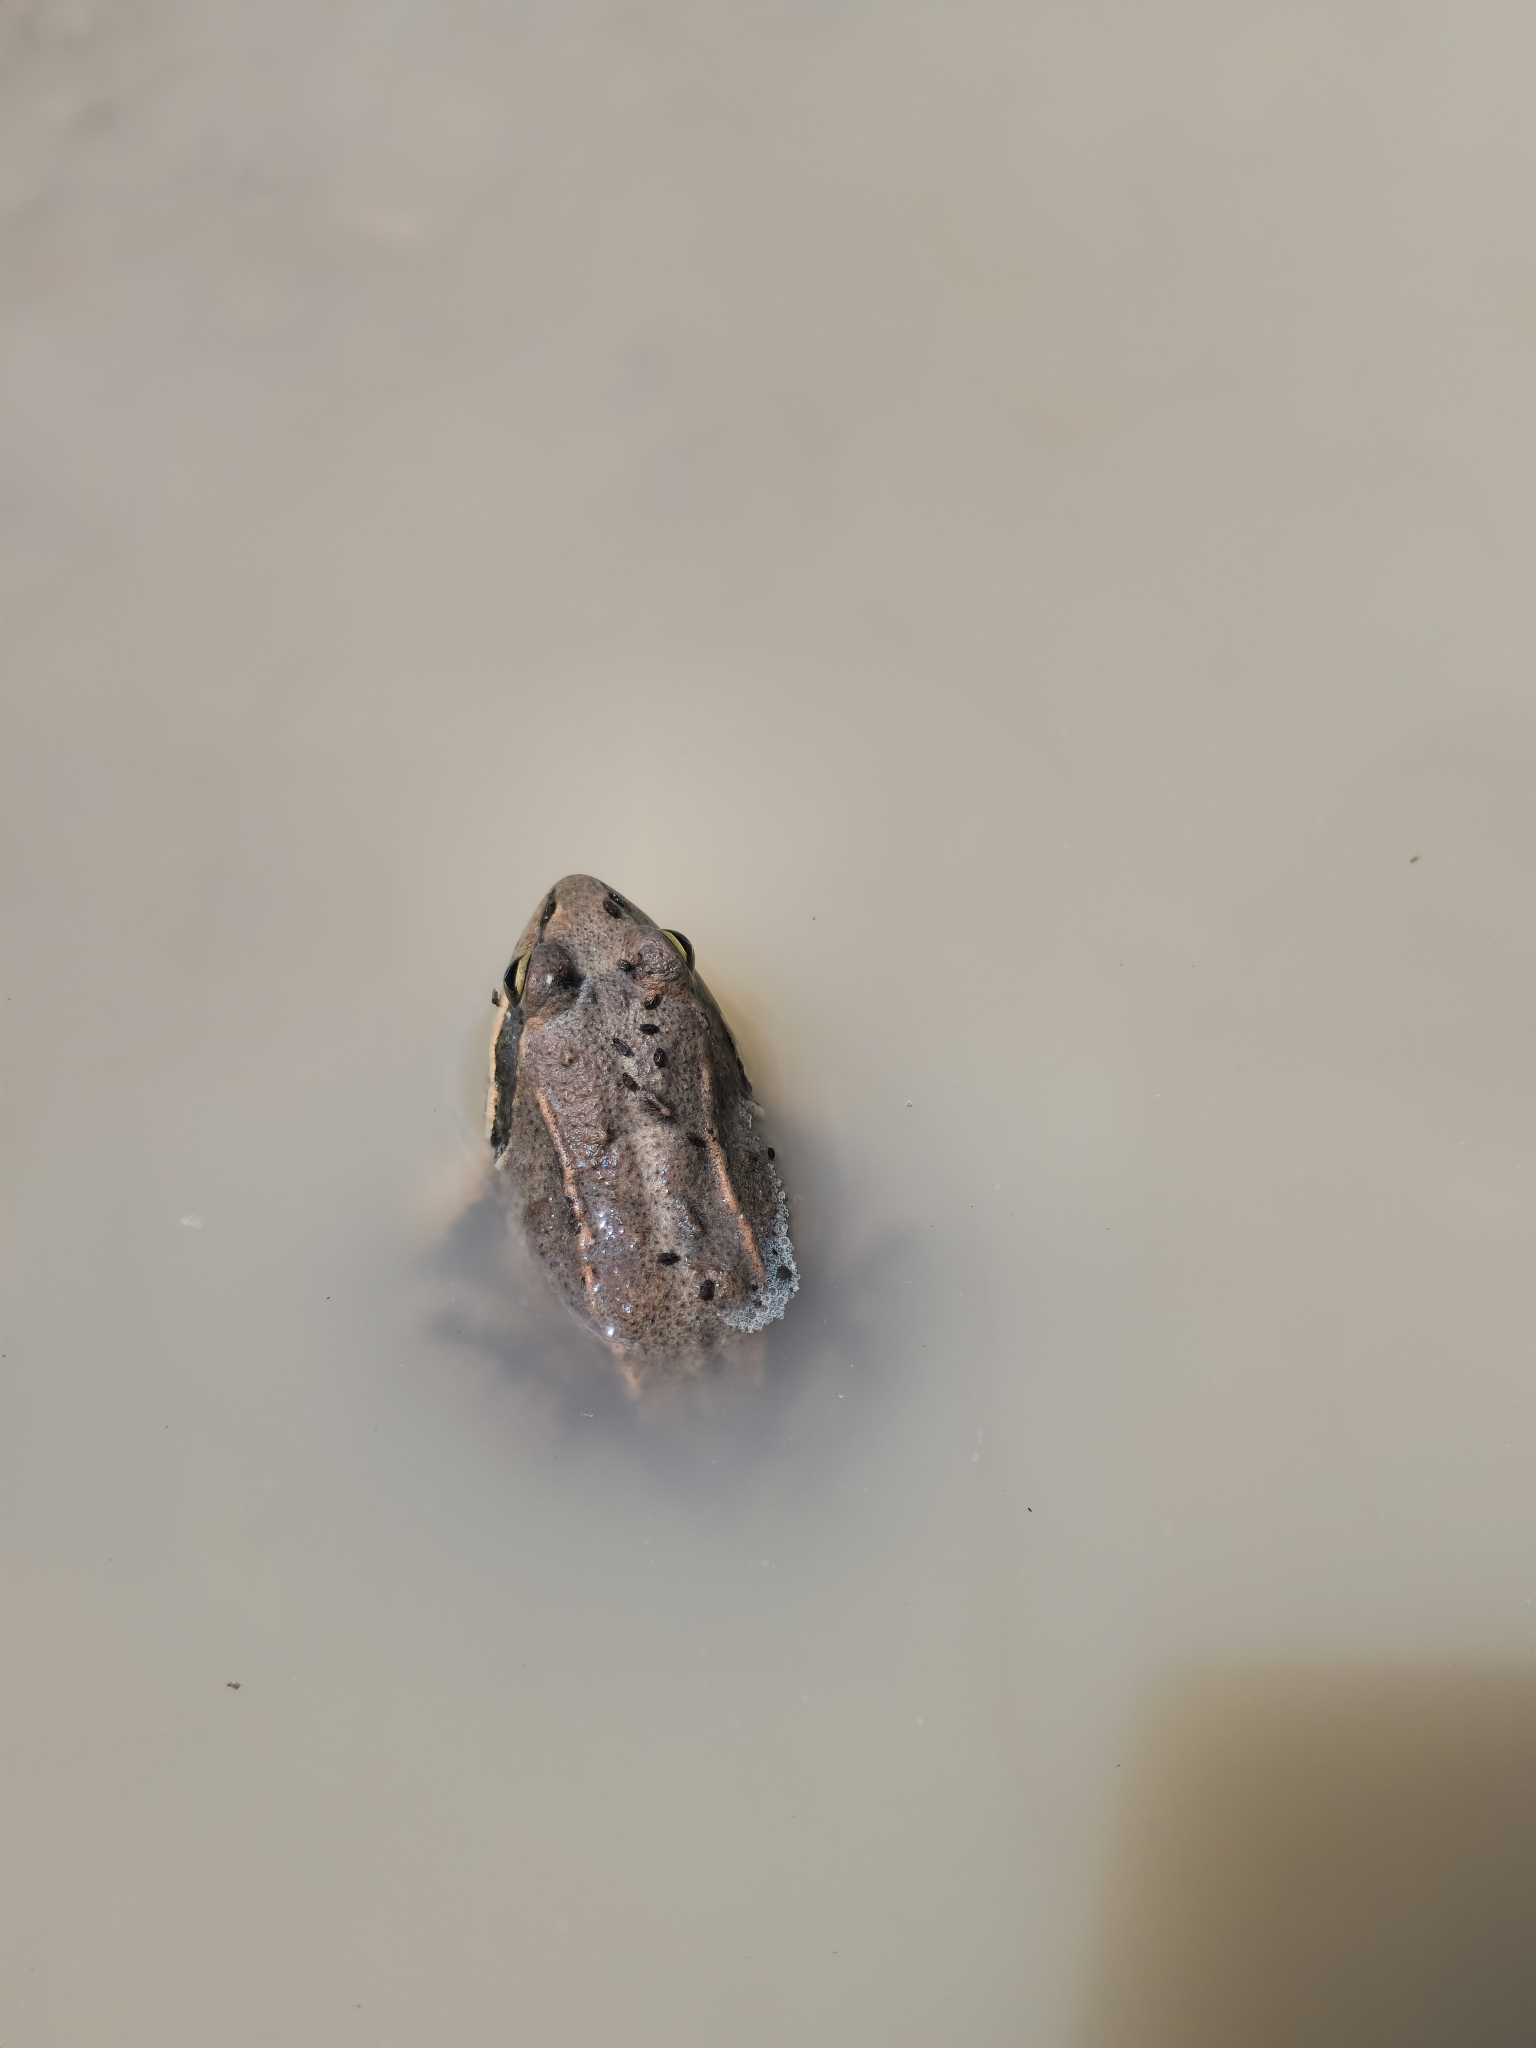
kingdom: Animalia
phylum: Chordata
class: Amphibia
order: Anura
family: Ranidae
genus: Rana
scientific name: Rana macrocnemis
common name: Banded frog
